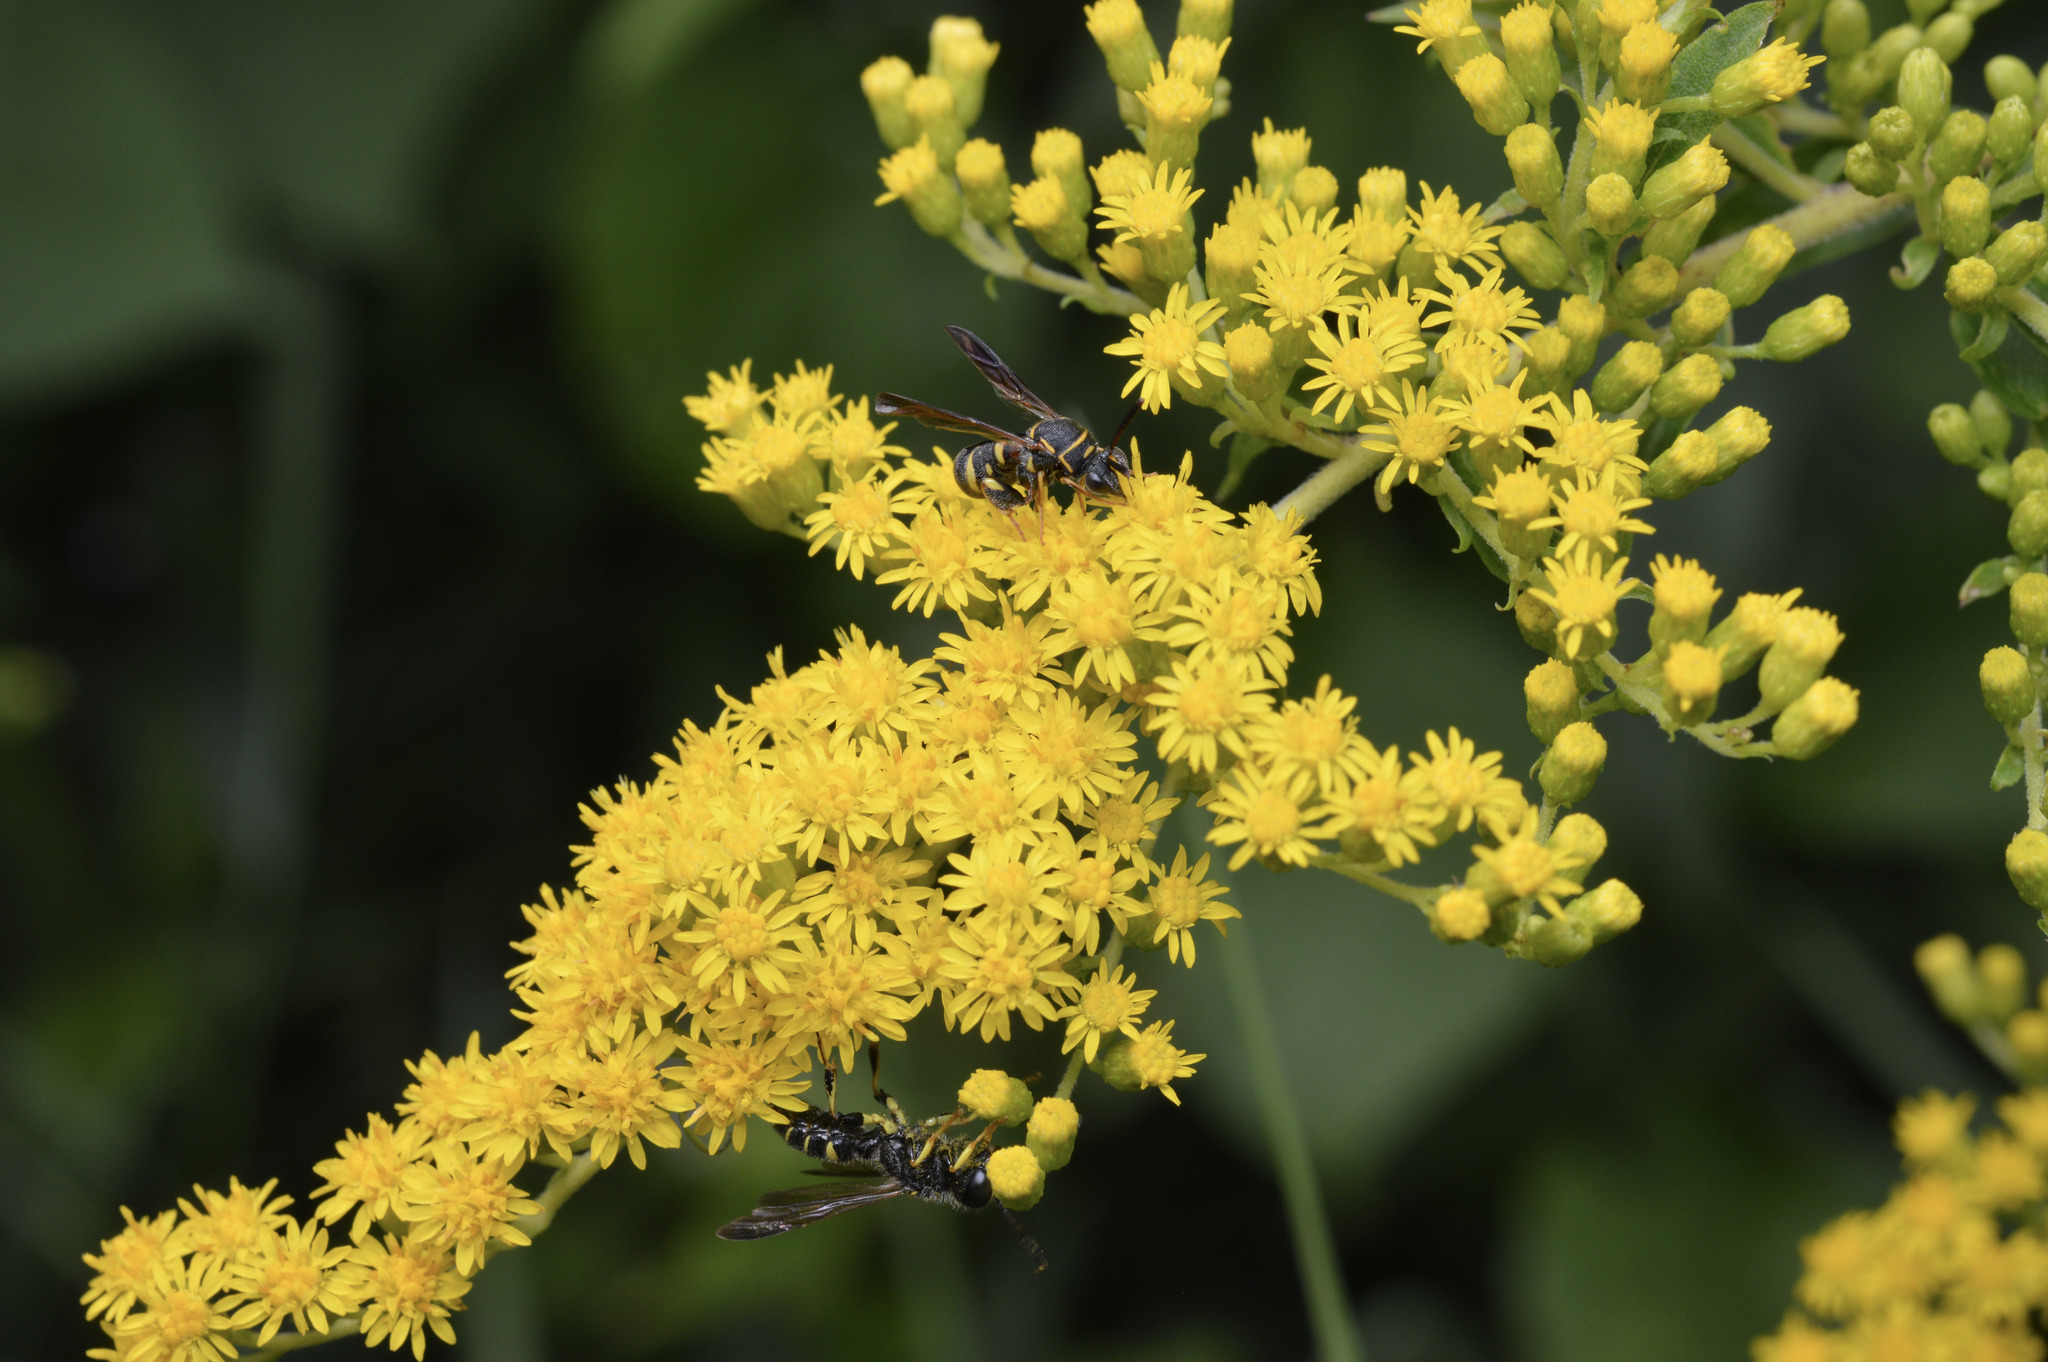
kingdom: Animalia
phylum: Arthropoda
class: Insecta
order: Hymenoptera
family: Leucospidae
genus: Leucospis
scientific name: Leucospis affinis
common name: Wasp
